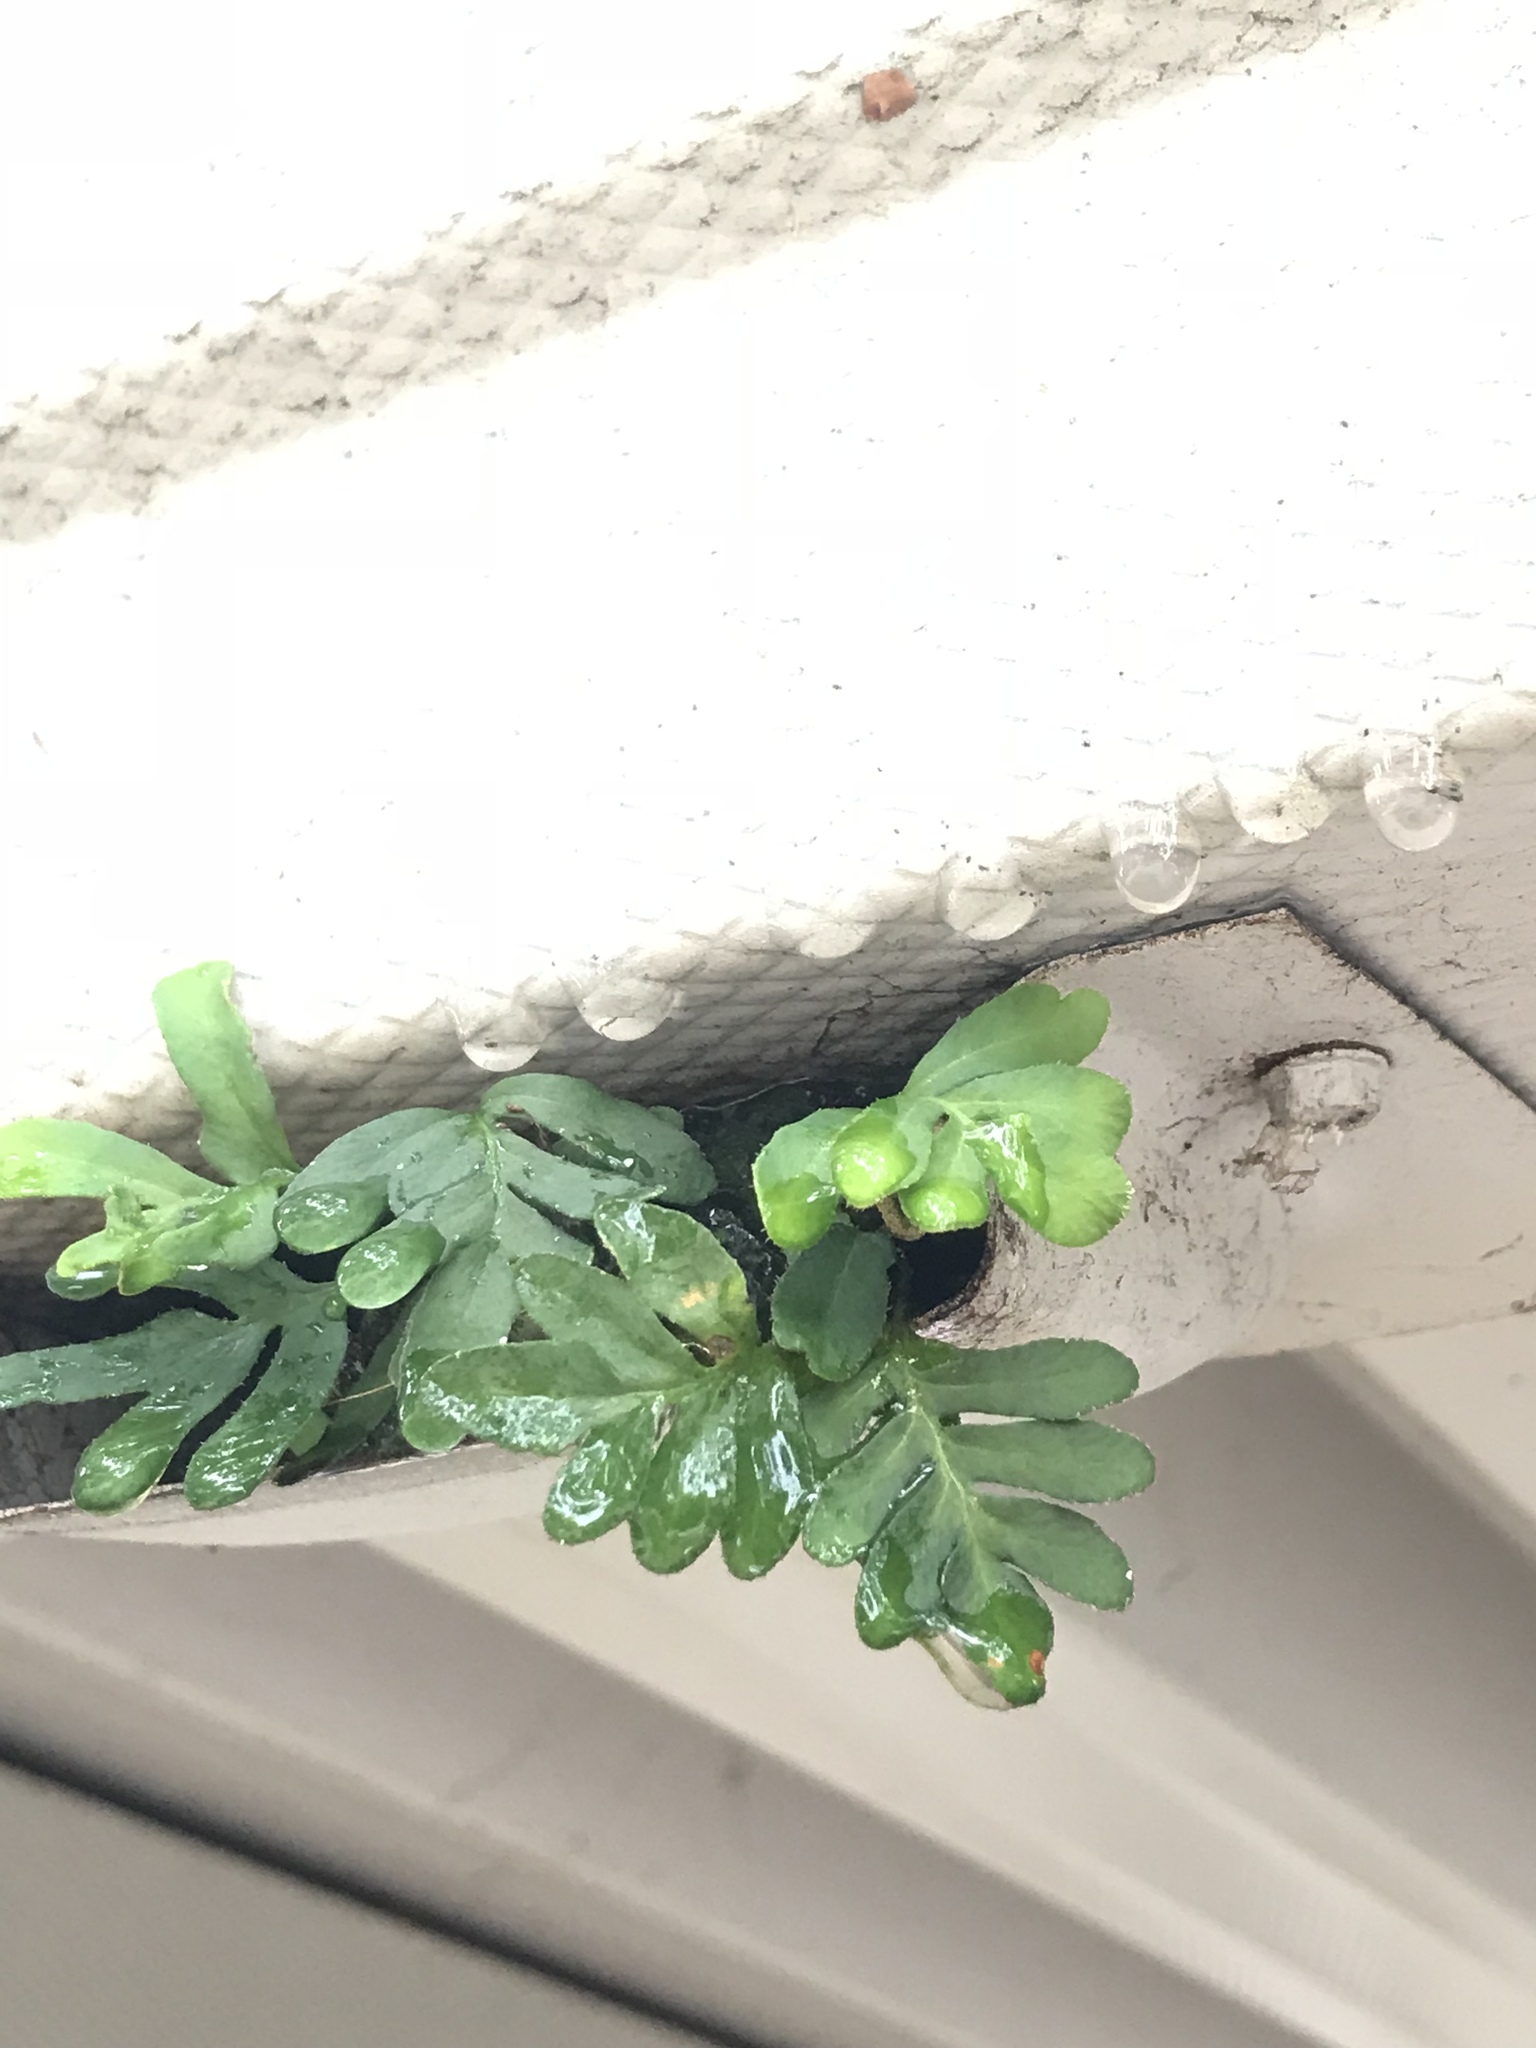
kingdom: Plantae
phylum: Tracheophyta
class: Polypodiopsida
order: Polypodiales
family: Polypodiaceae
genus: Pleopeltis
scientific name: Pleopeltis michauxiana
